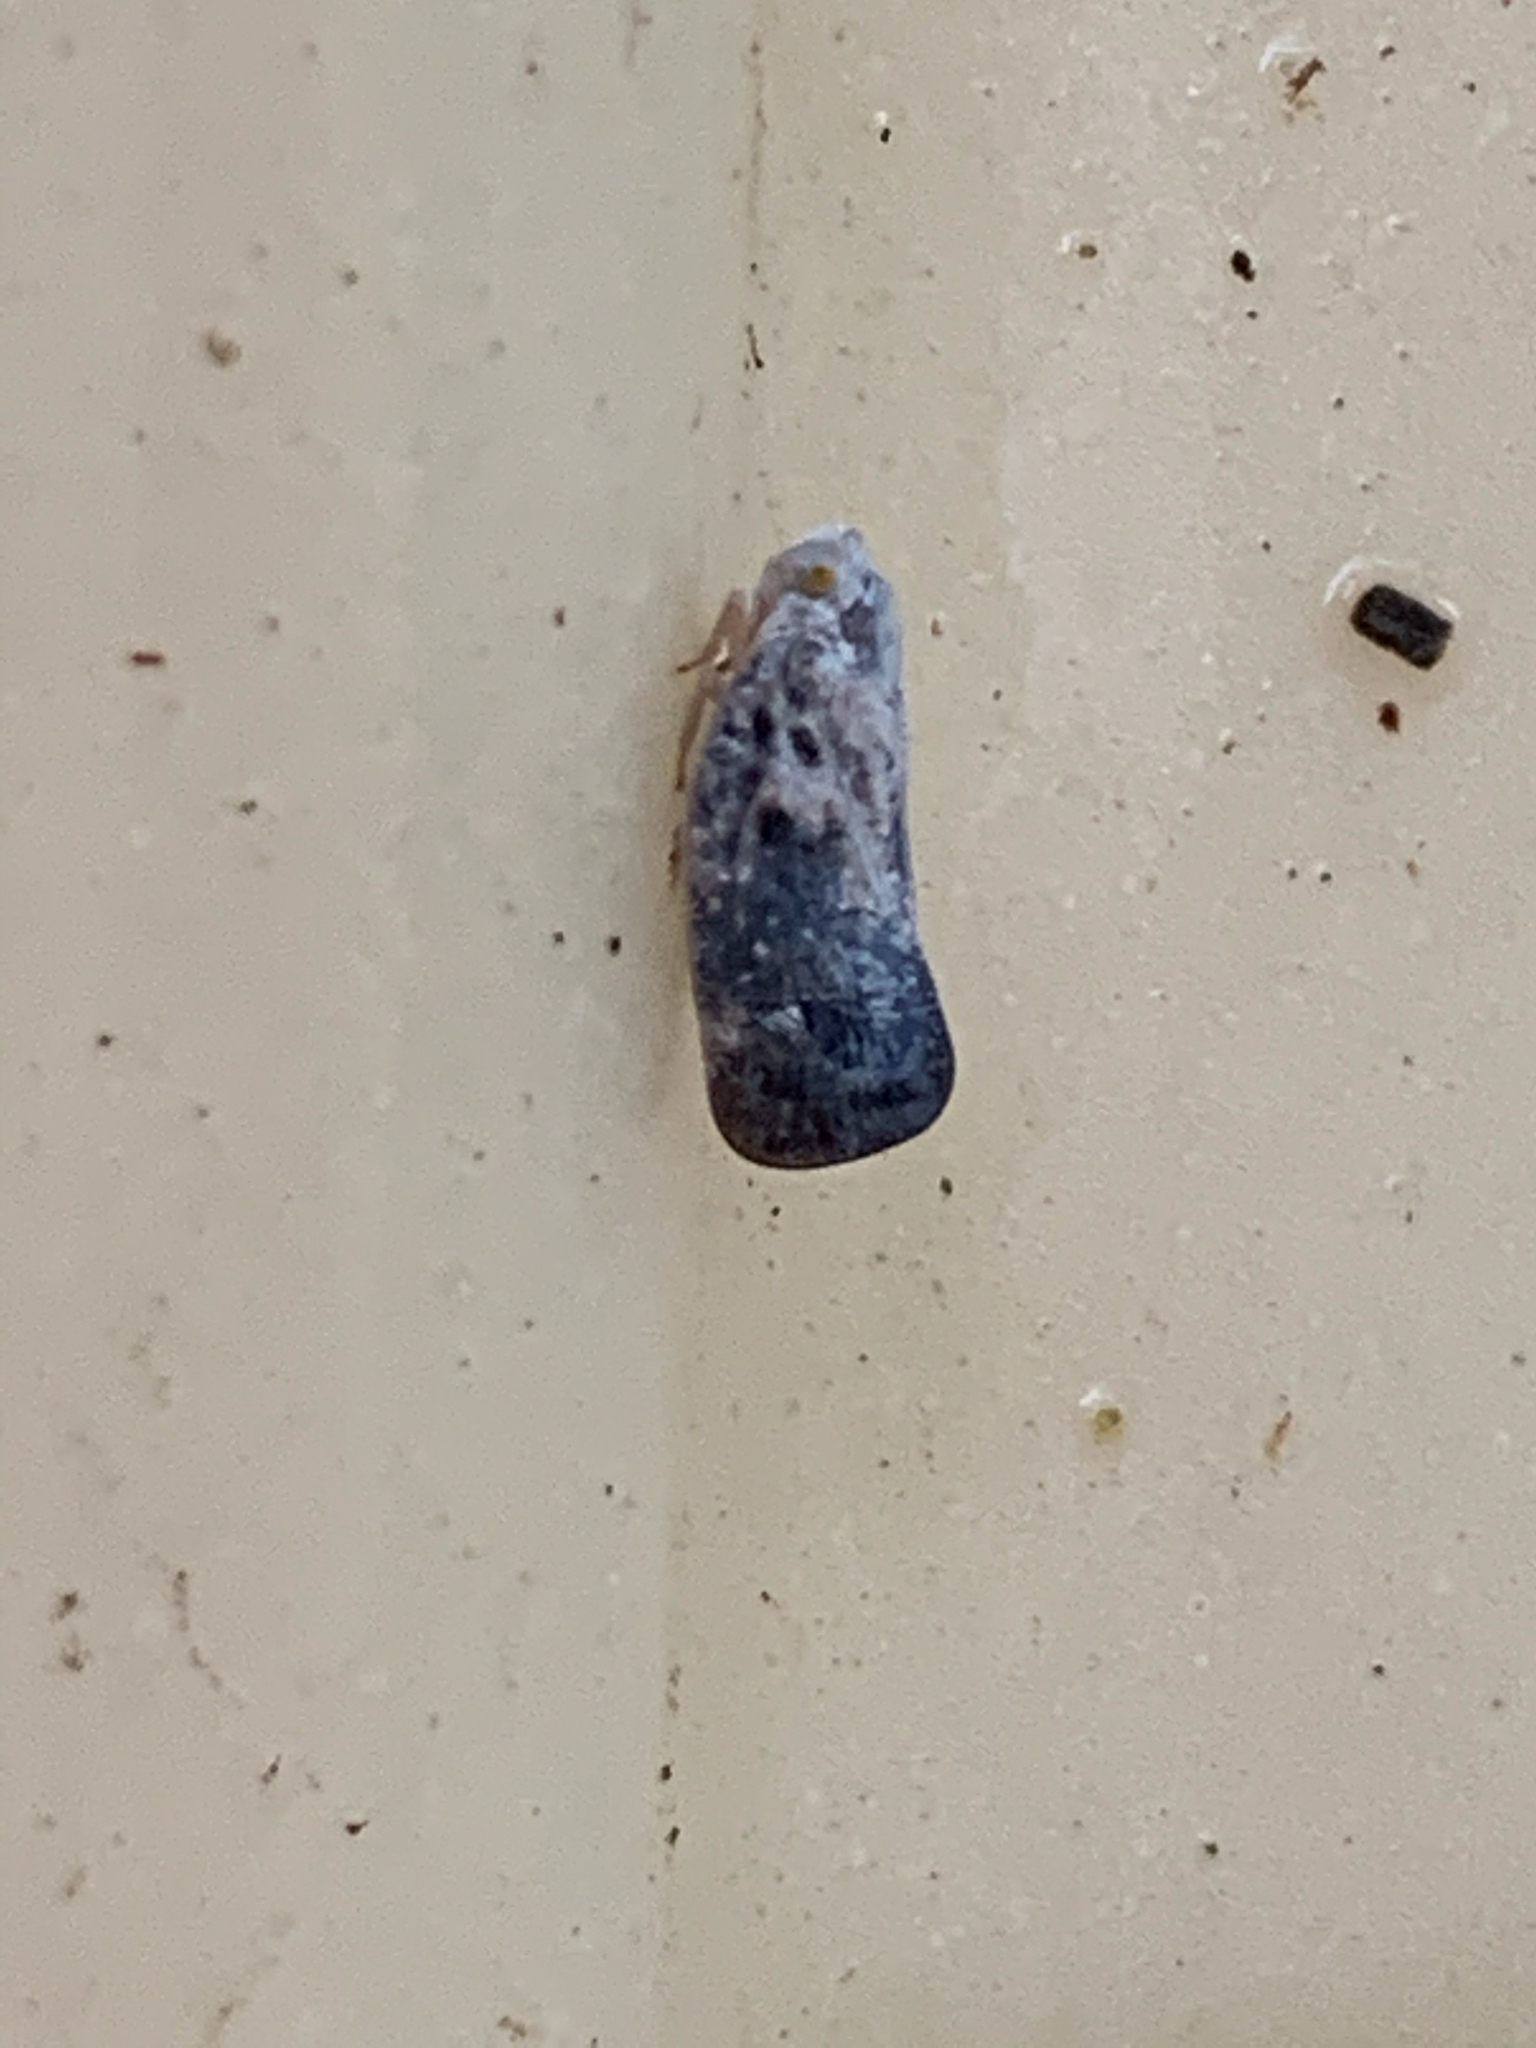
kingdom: Animalia
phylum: Arthropoda
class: Insecta
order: Hemiptera
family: Flatidae
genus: Metcalfa
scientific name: Metcalfa pruinosa
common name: Citrus flatid planthopper
